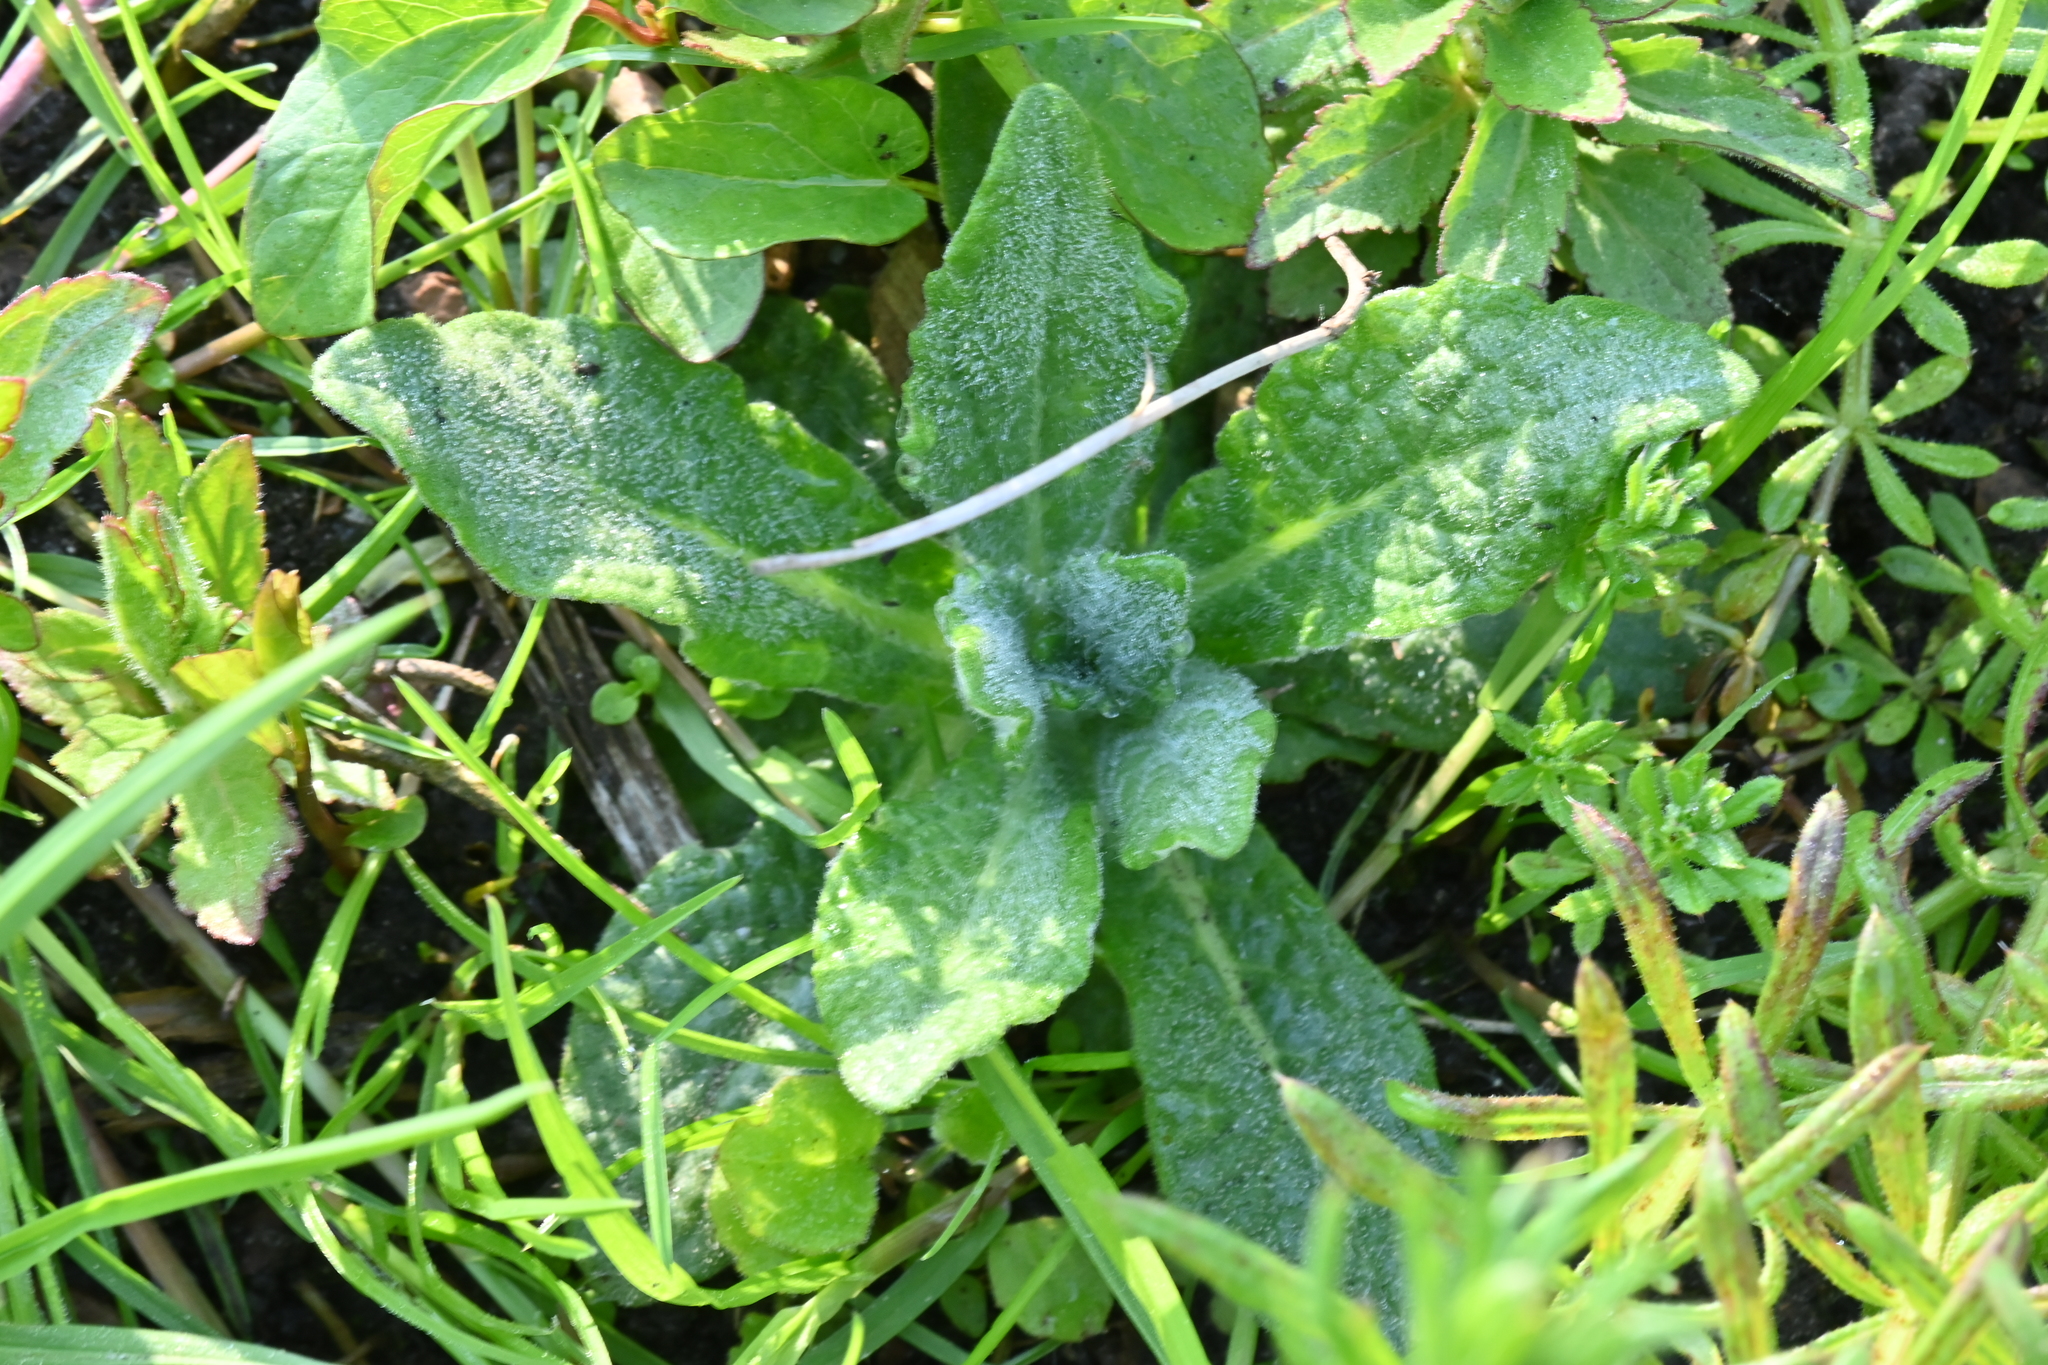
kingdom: Plantae
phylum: Tracheophyta
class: Magnoliopsida
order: Asterales
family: Asteraceae
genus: Pulicaria
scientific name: Pulicaria dysenterica
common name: Common fleabane
